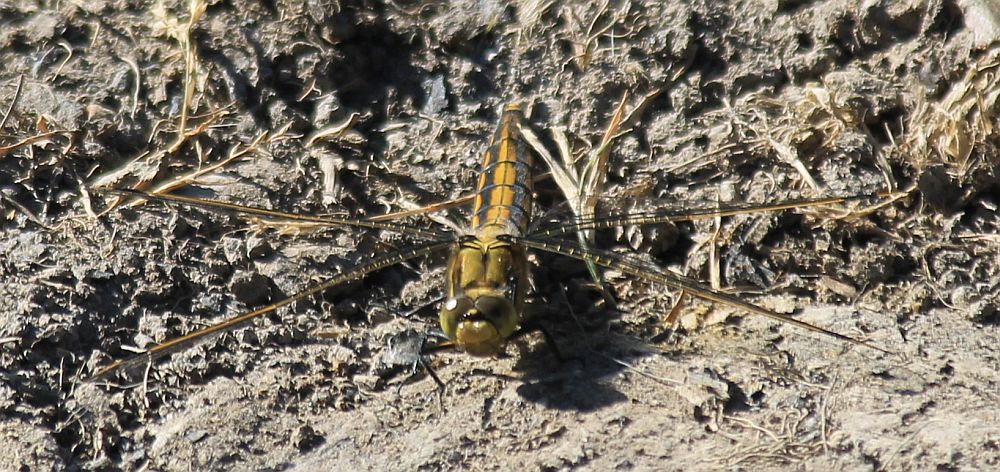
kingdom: Animalia
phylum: Arthropoda
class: Insecta
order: Odonata
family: Libellulidae
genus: Orthetrum
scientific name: Orthetrum cancellatum
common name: Black-tailed skimmer
